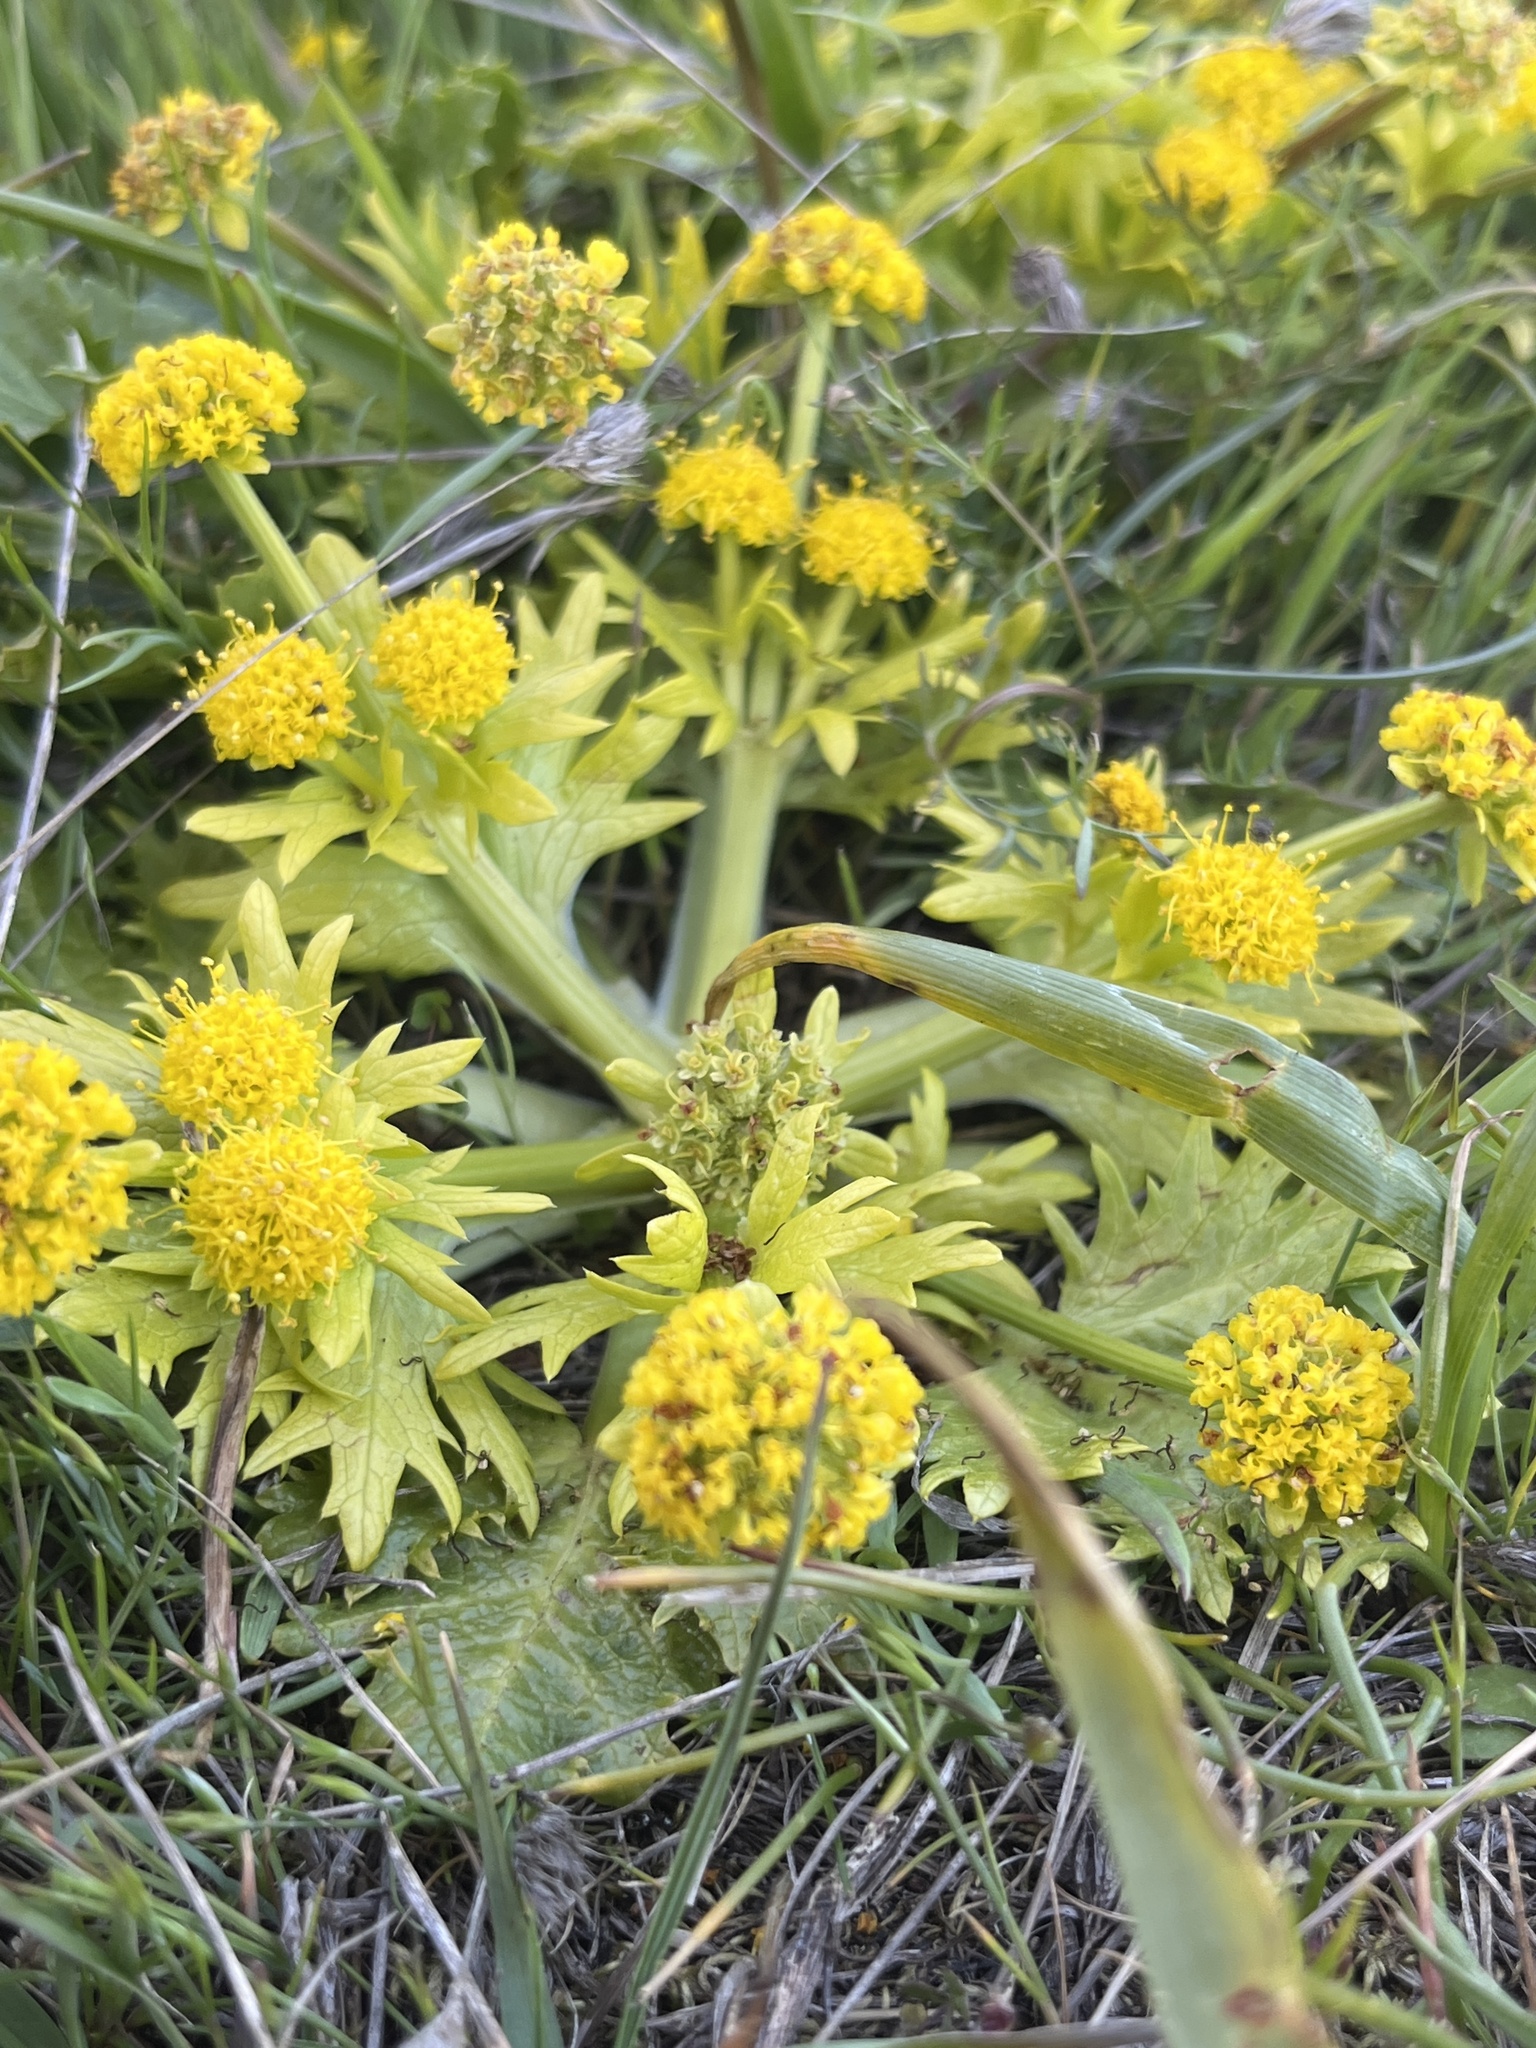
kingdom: Plantae
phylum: Tracheophyta
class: Magnoliopsida
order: Apiales
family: Apiaceae
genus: Sanicula
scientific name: Sanicula arctopoides
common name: Footsteps-of-spring
